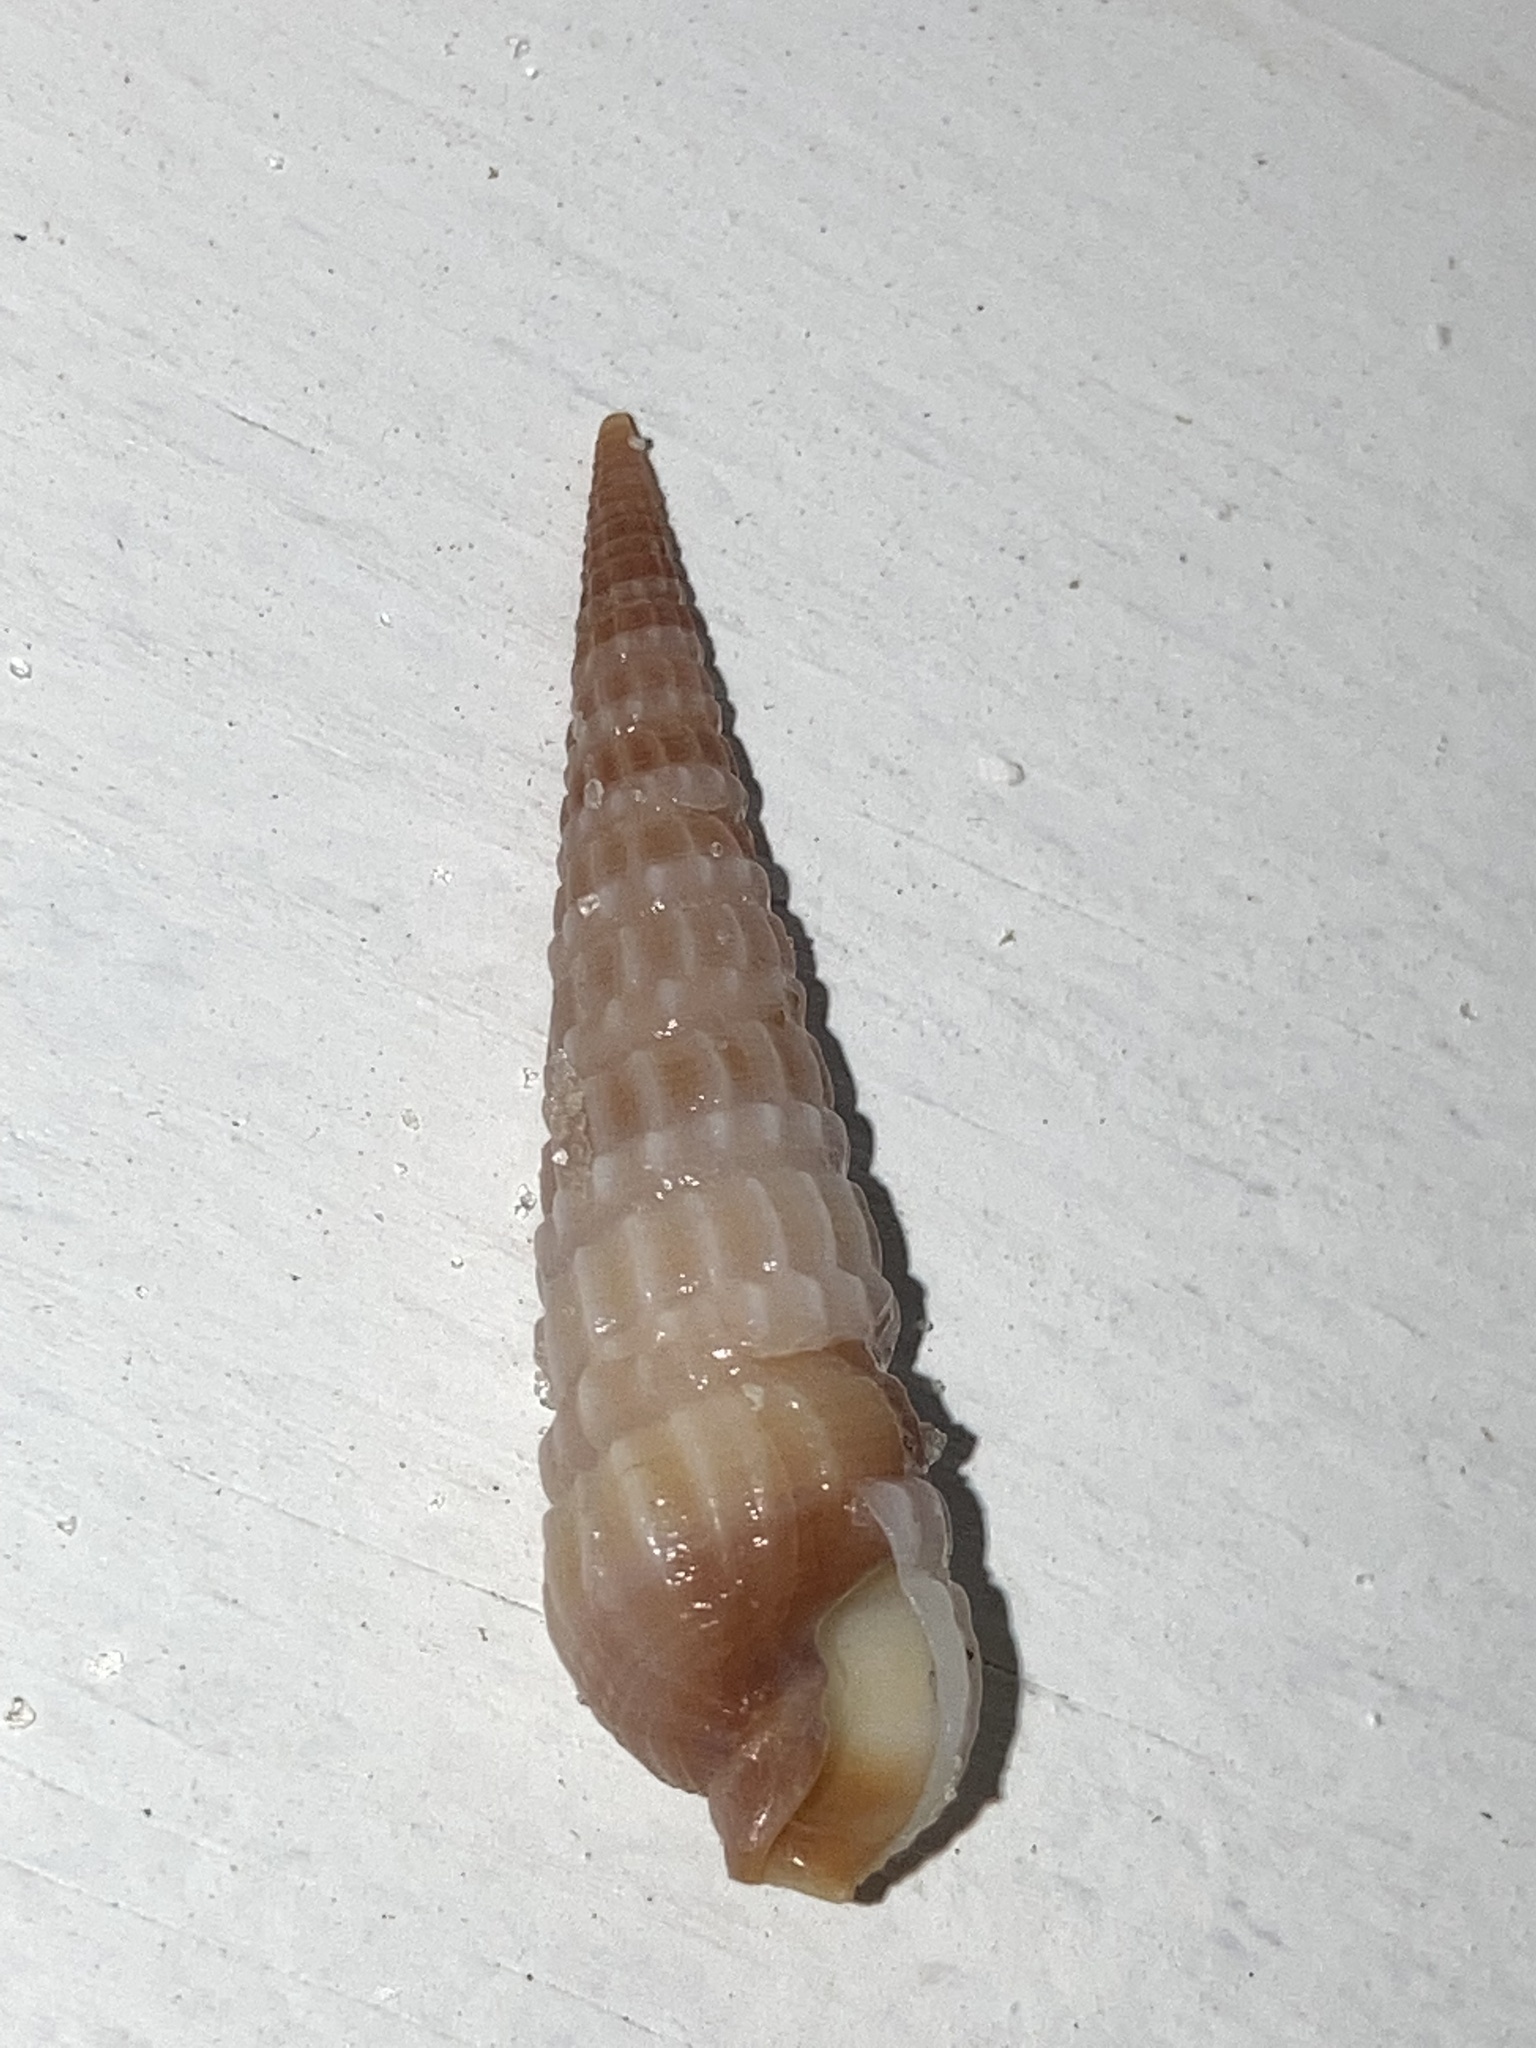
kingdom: Animalia
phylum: Mollusca
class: Gastropoda
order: Neogastropoda
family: Terebridae
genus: Neoterebra
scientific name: Neoterebra dislocata
